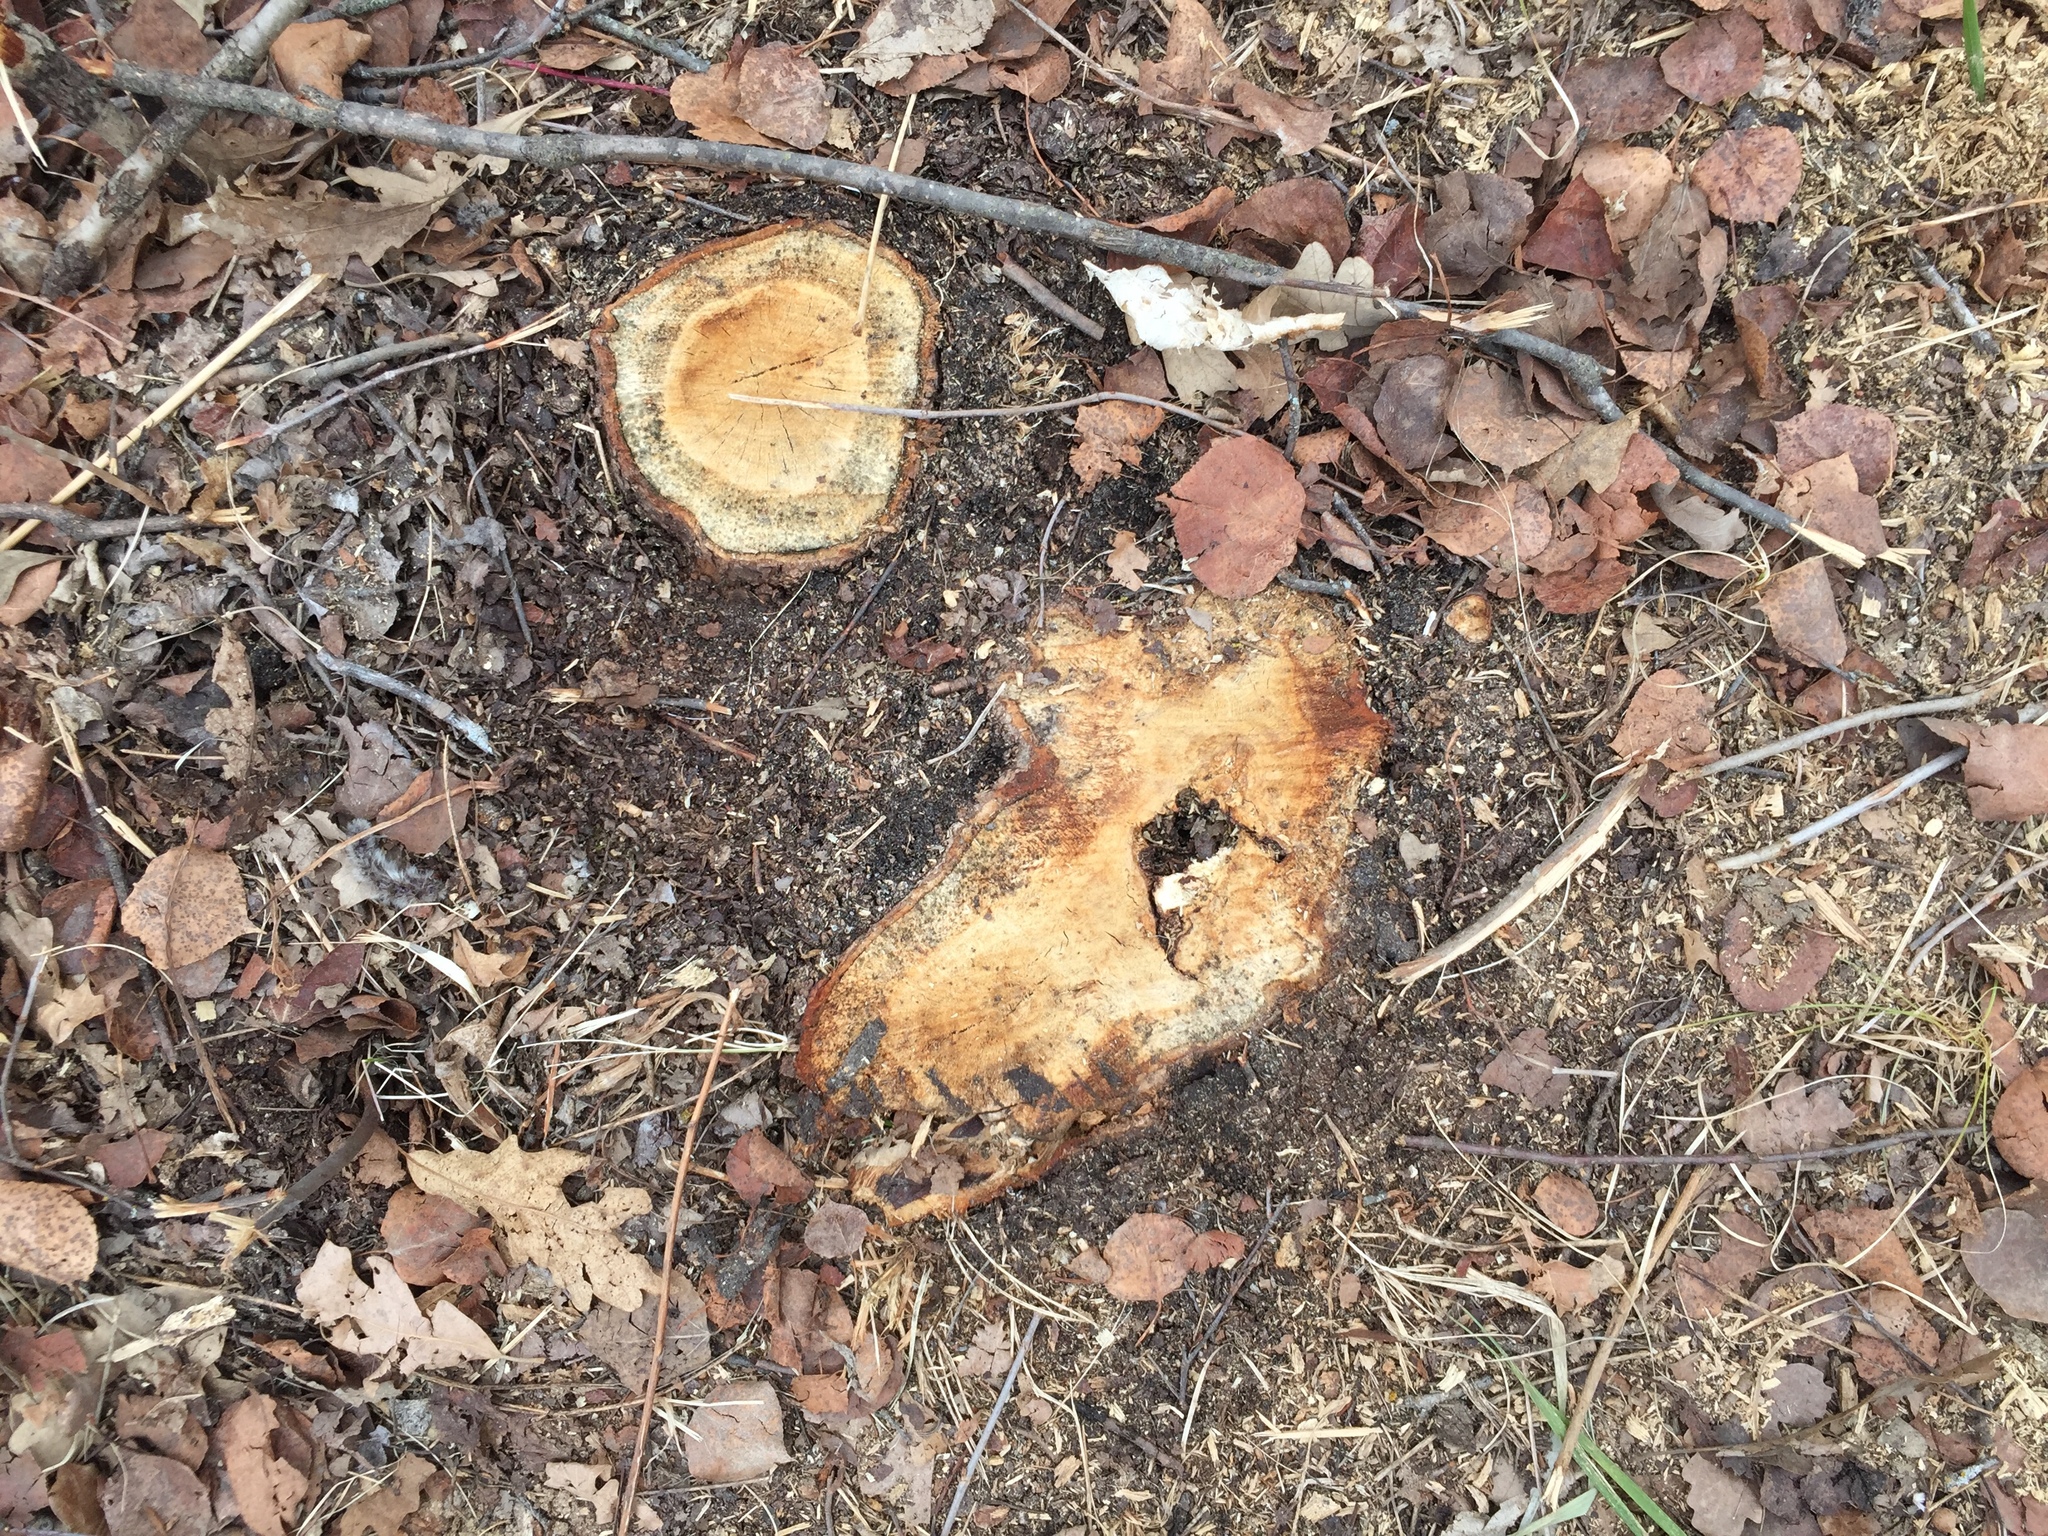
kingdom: Plantae
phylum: Tracheophyta
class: Magnoliopsida
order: Fagales
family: Fagaceae
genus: Quercus
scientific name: Quercus macrocarpa
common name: Bur oak
